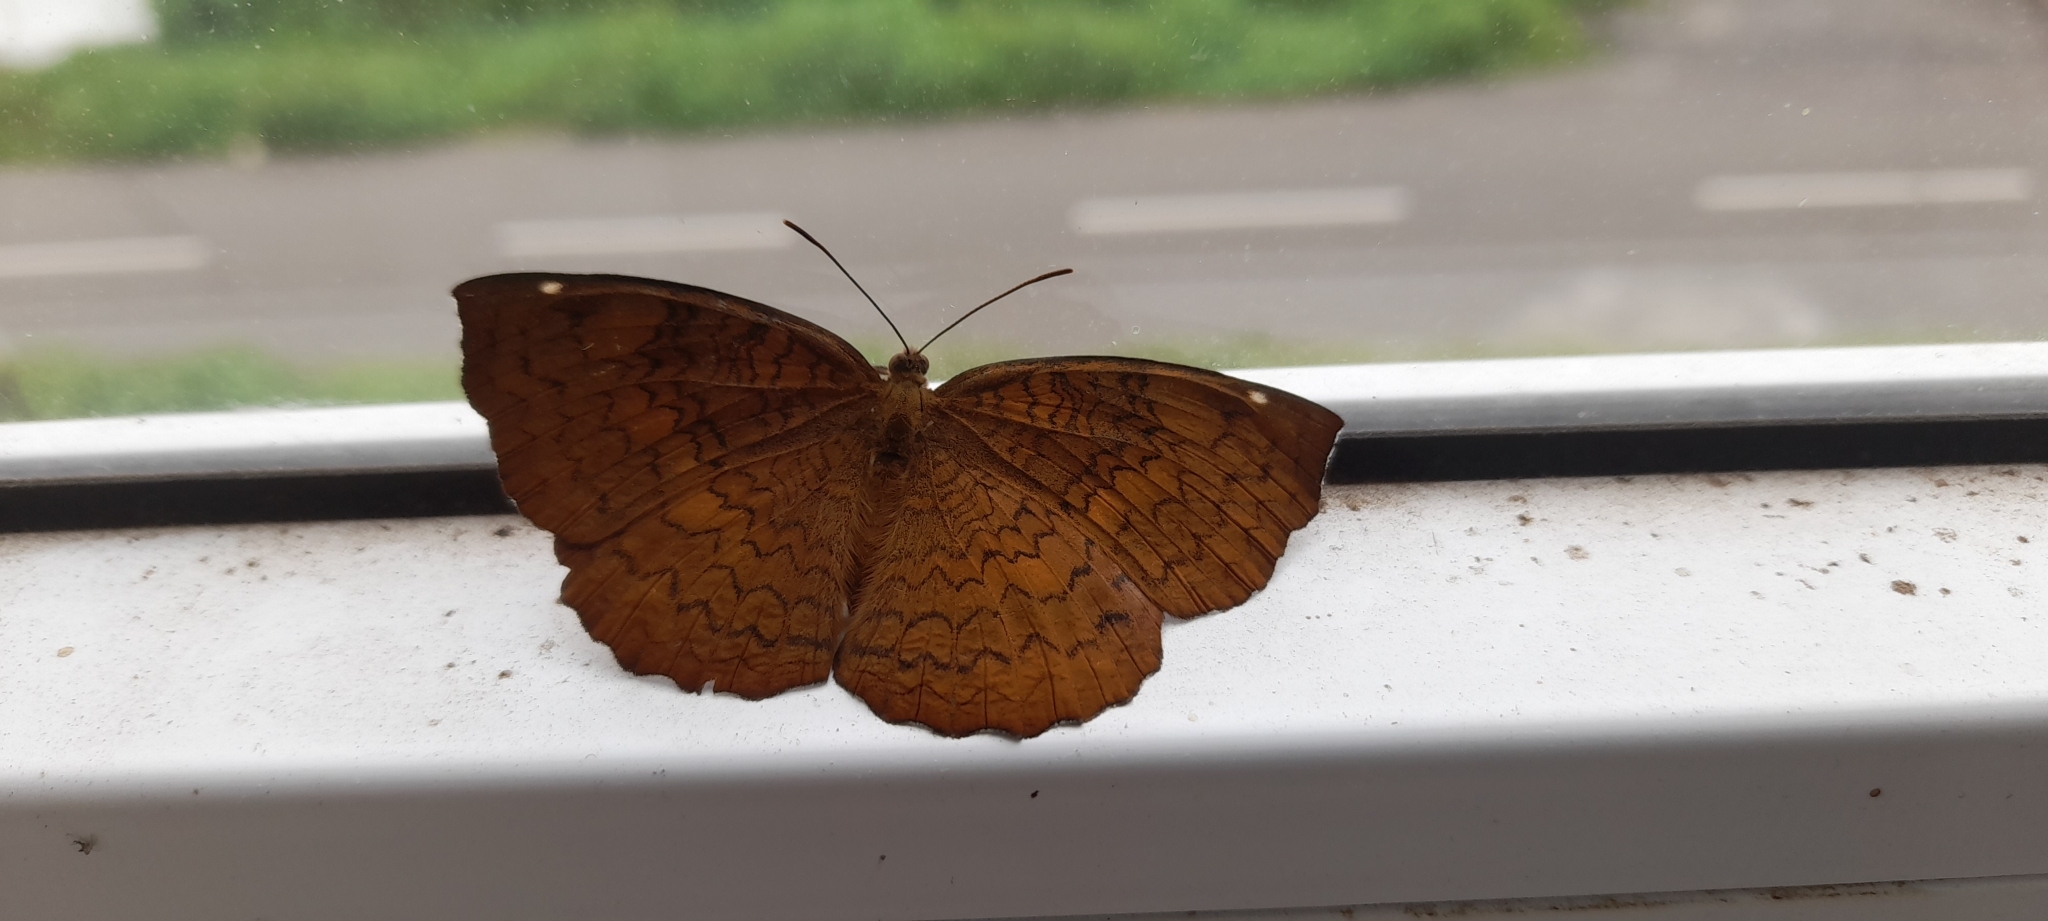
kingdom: Animalia
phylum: Arthropoda
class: Insecta
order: Lepidoptera
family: Nymphalidae
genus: Ariadne
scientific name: Ariadne merione
